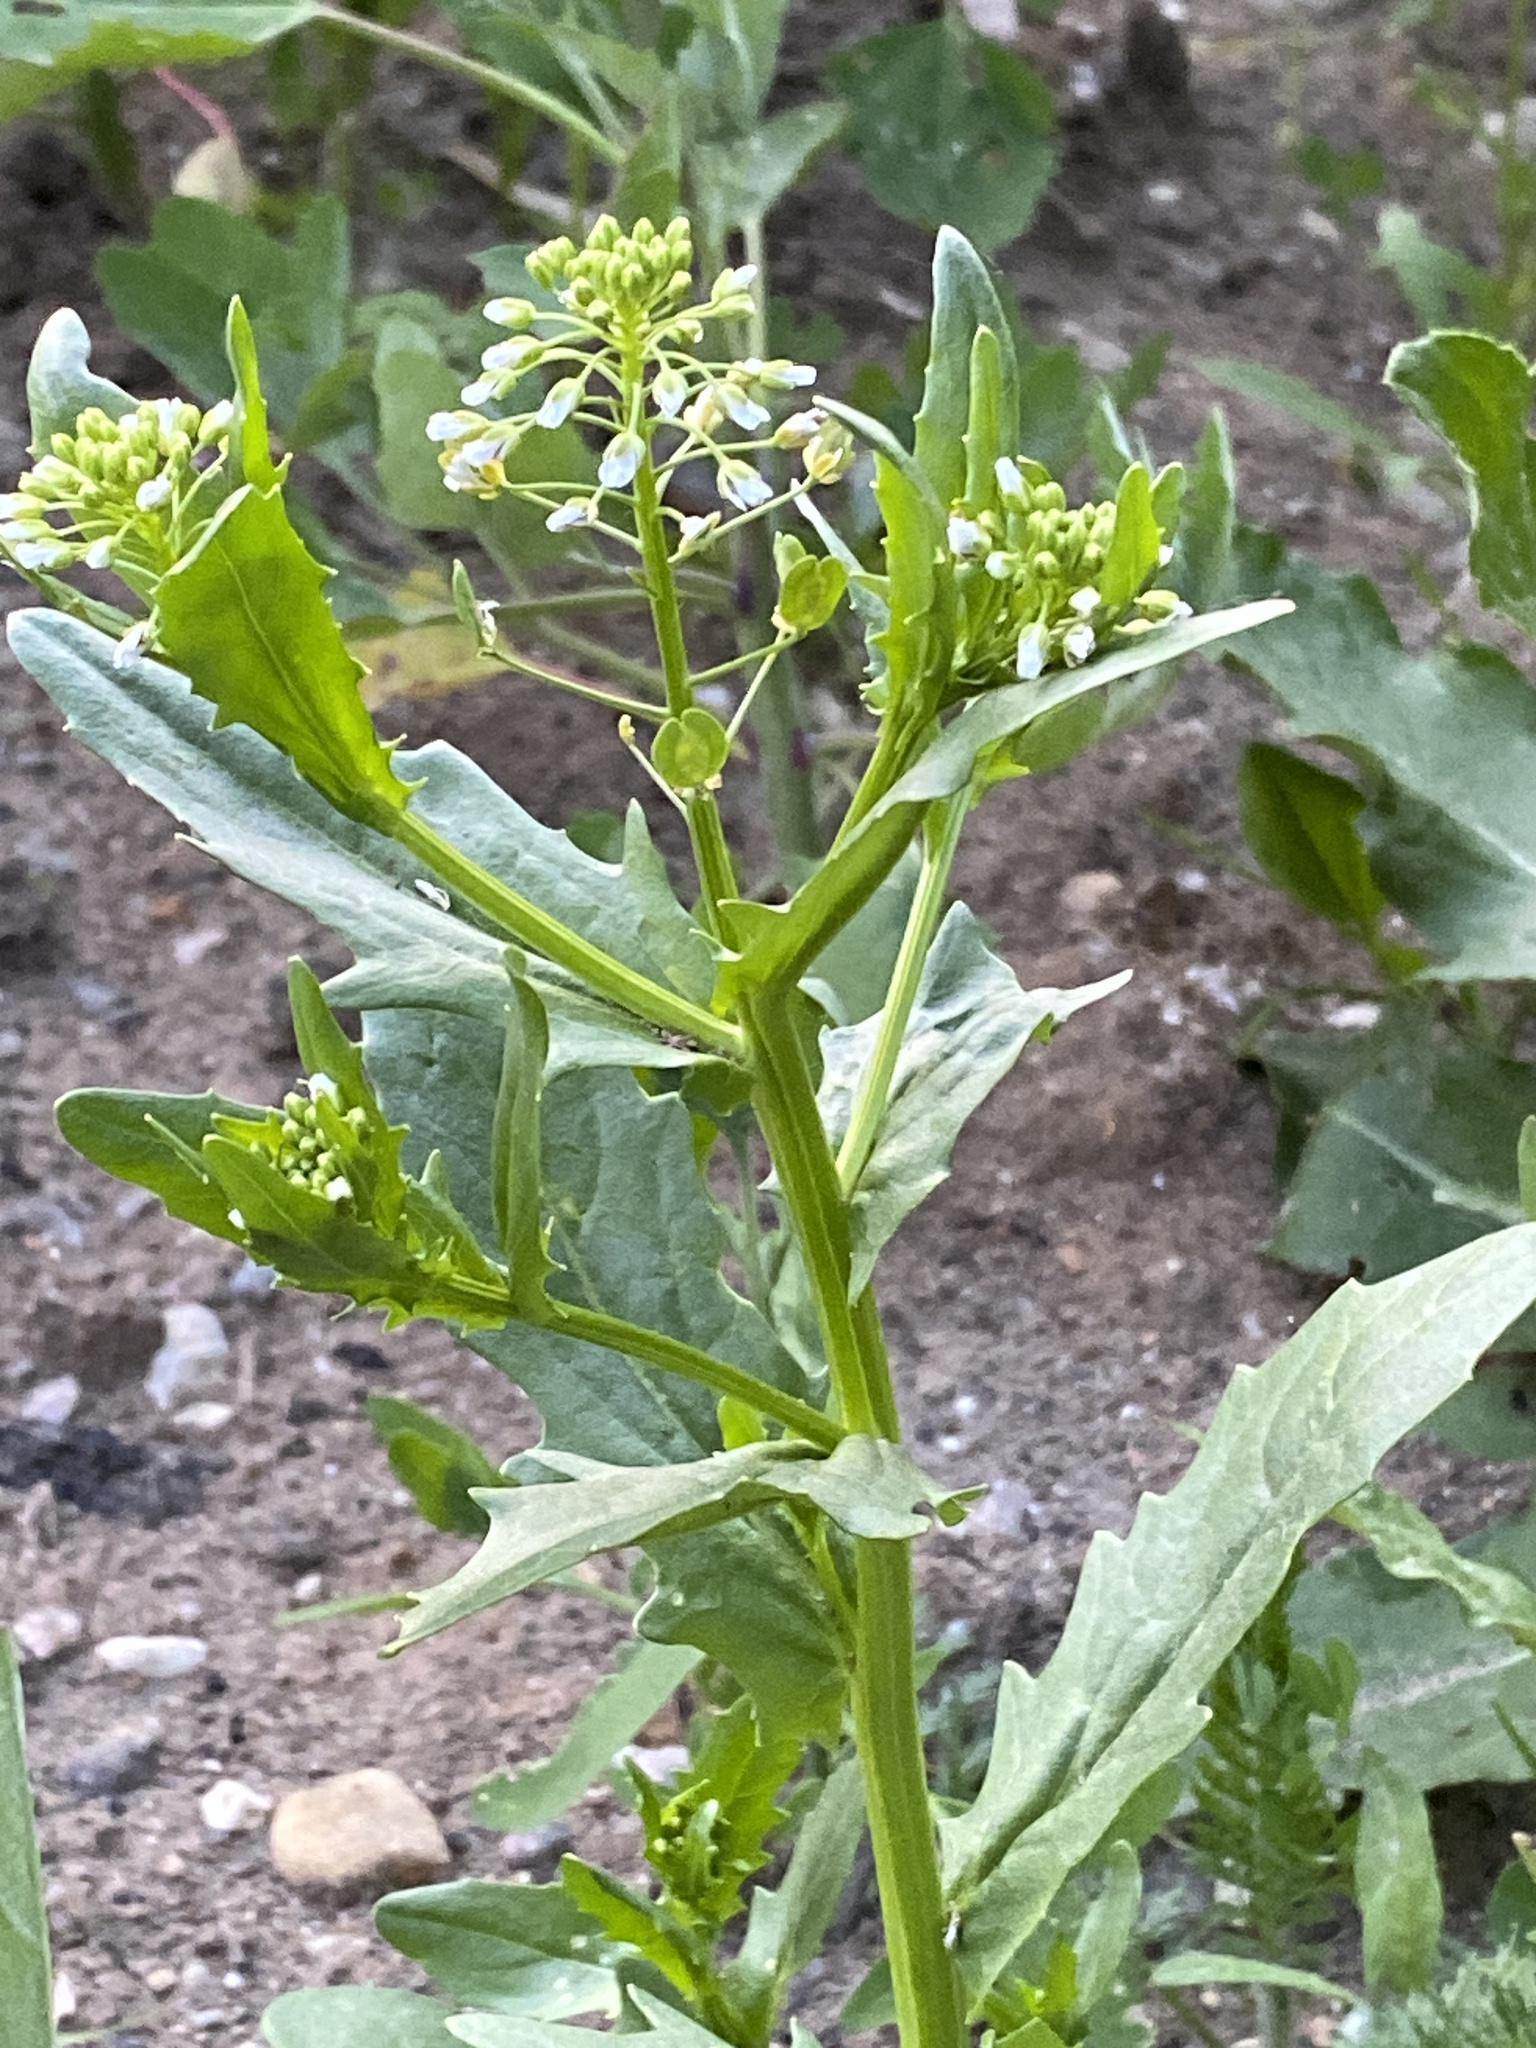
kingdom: Plantae
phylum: Tracheophyta
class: Magnoliopsida
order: Brassicales
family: Brassicaceae
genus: Thlaspi
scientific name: Thlaspi arvense
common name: Field pennycress
